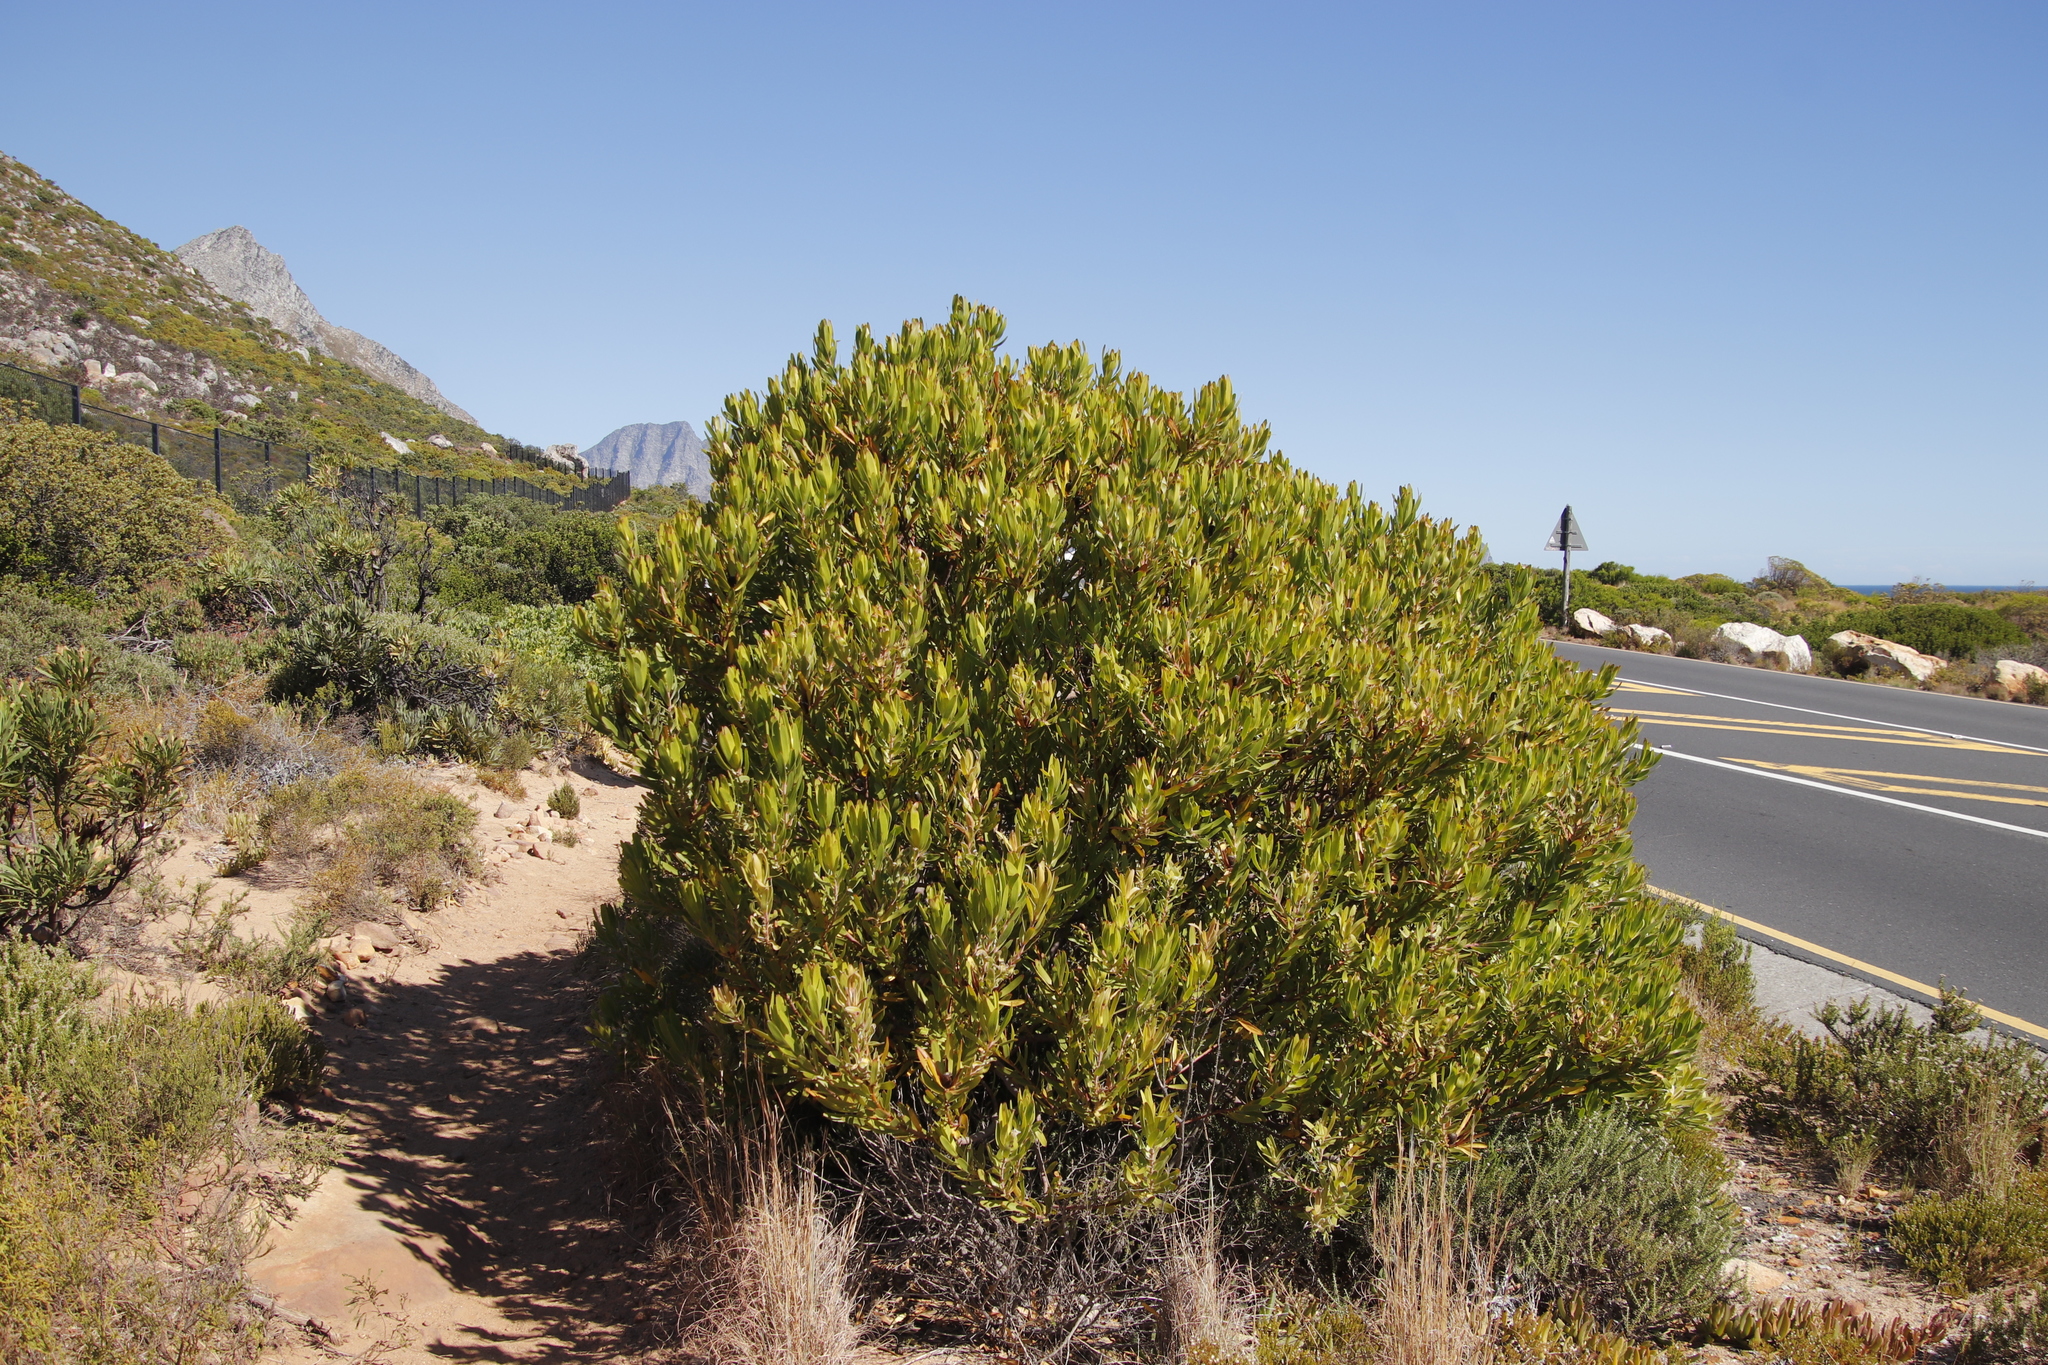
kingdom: Plantae
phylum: Tracheophyta
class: Magnoliopsida
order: Proteales
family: Proteaceae
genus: Leucadendron
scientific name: Leucadendron laureolum
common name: Golden sunshinebush
